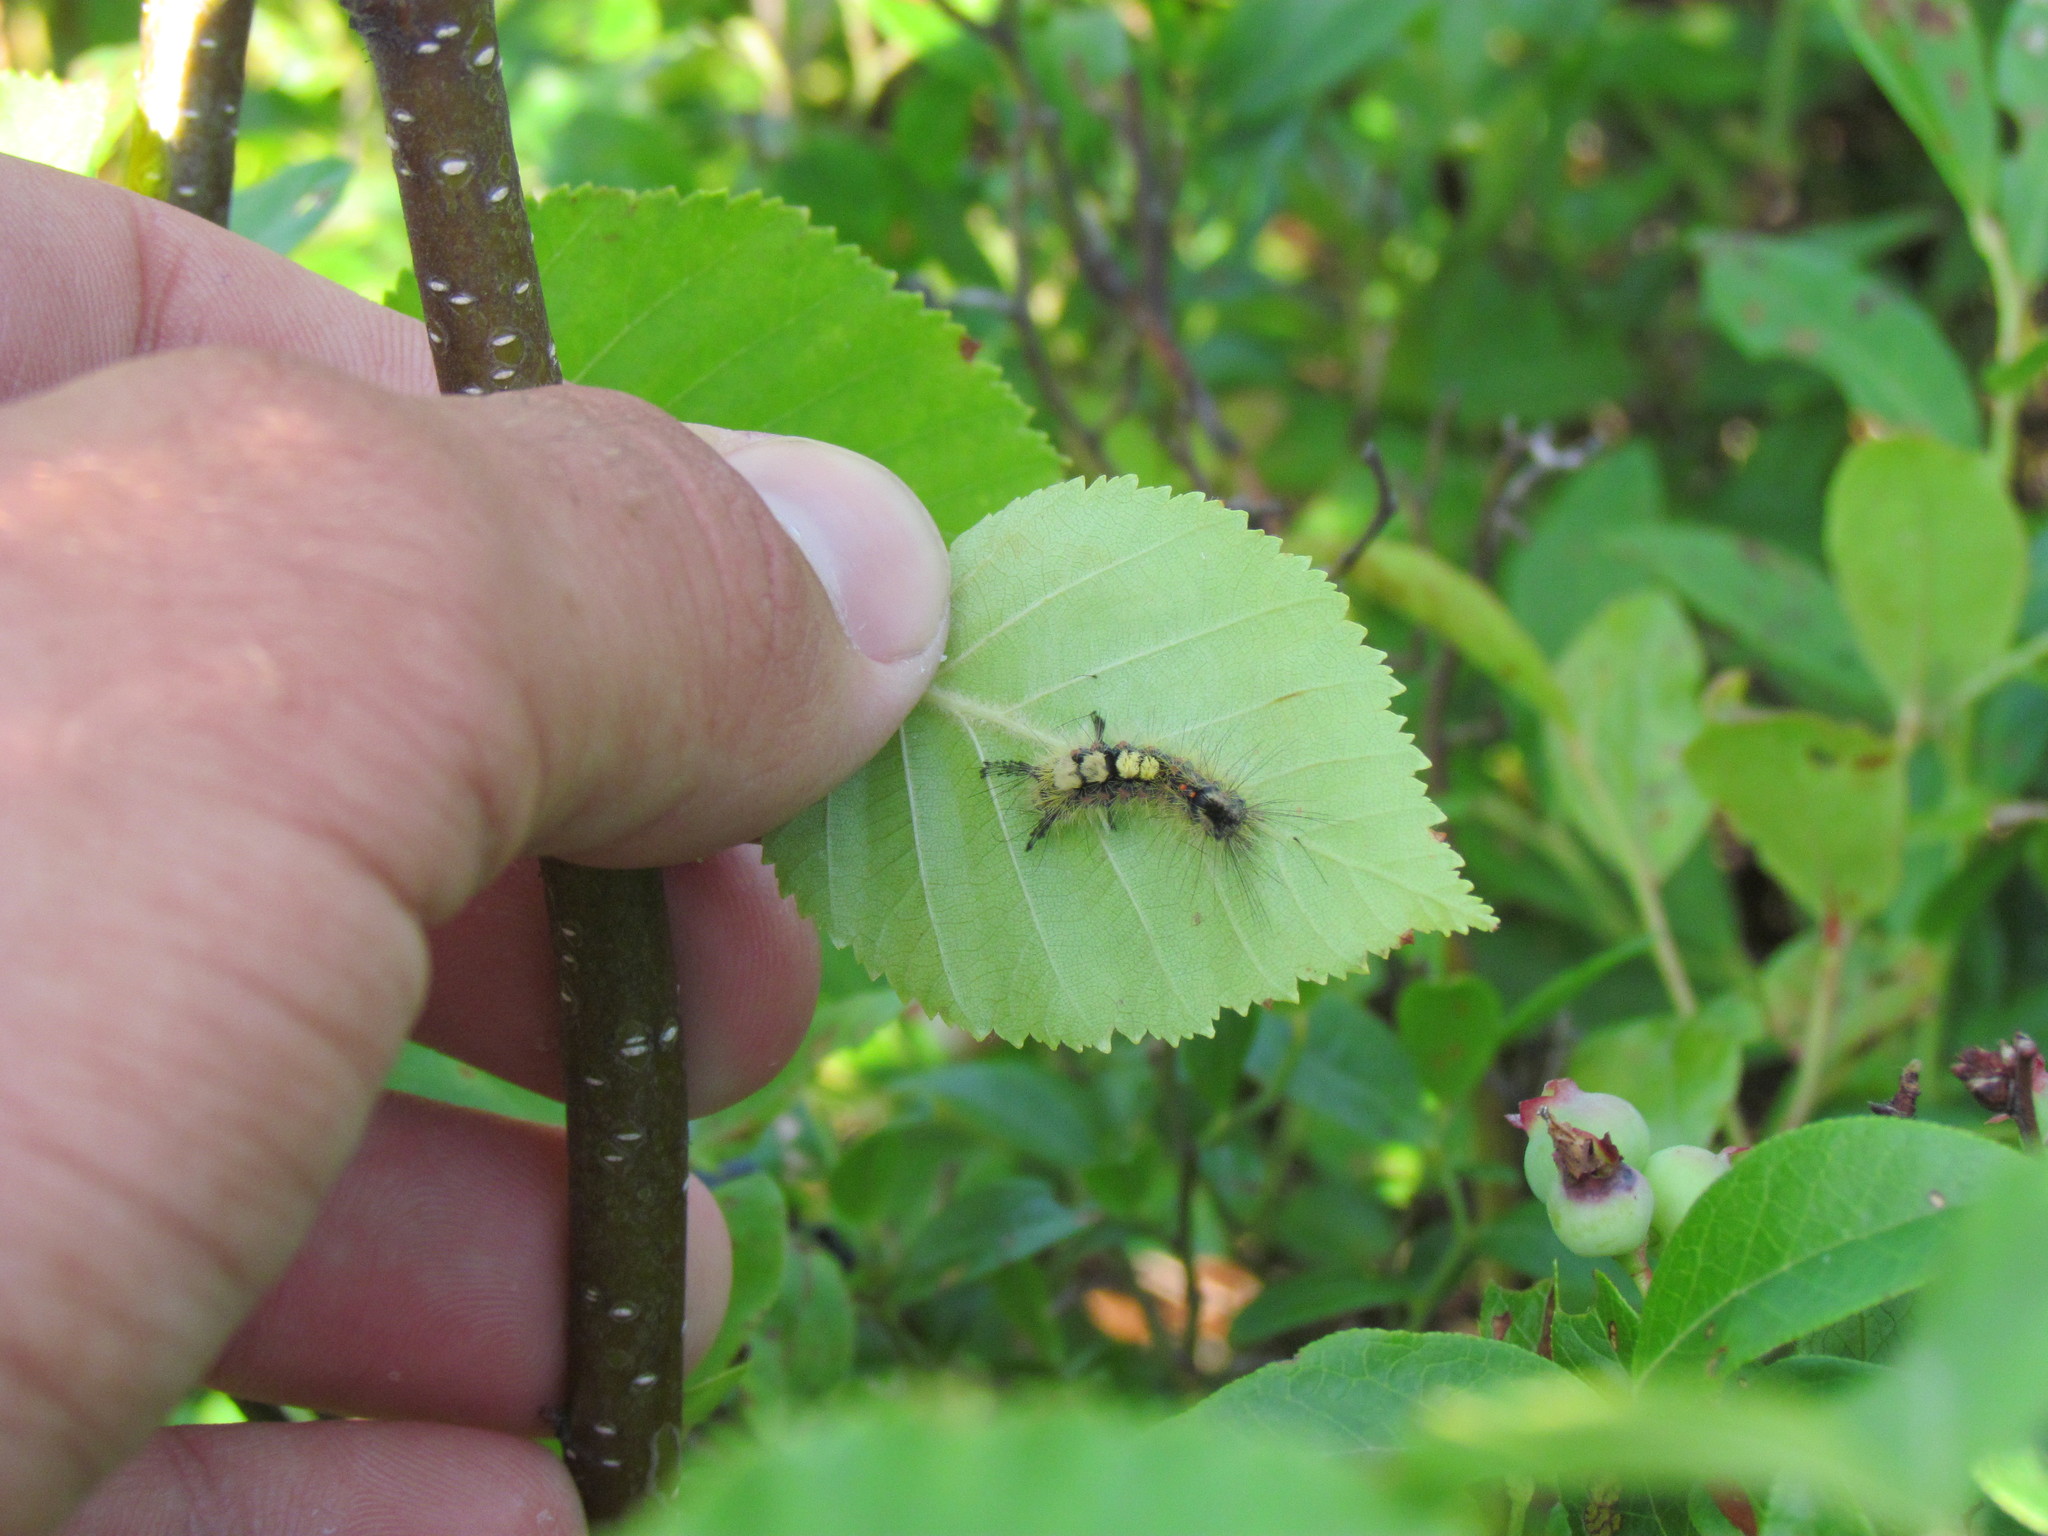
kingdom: Animalia
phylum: Arthropoda
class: Insecta
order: Lepidoptera
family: Erebidae
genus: Orgyia
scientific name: Orgyia antiqua
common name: Vapourer
